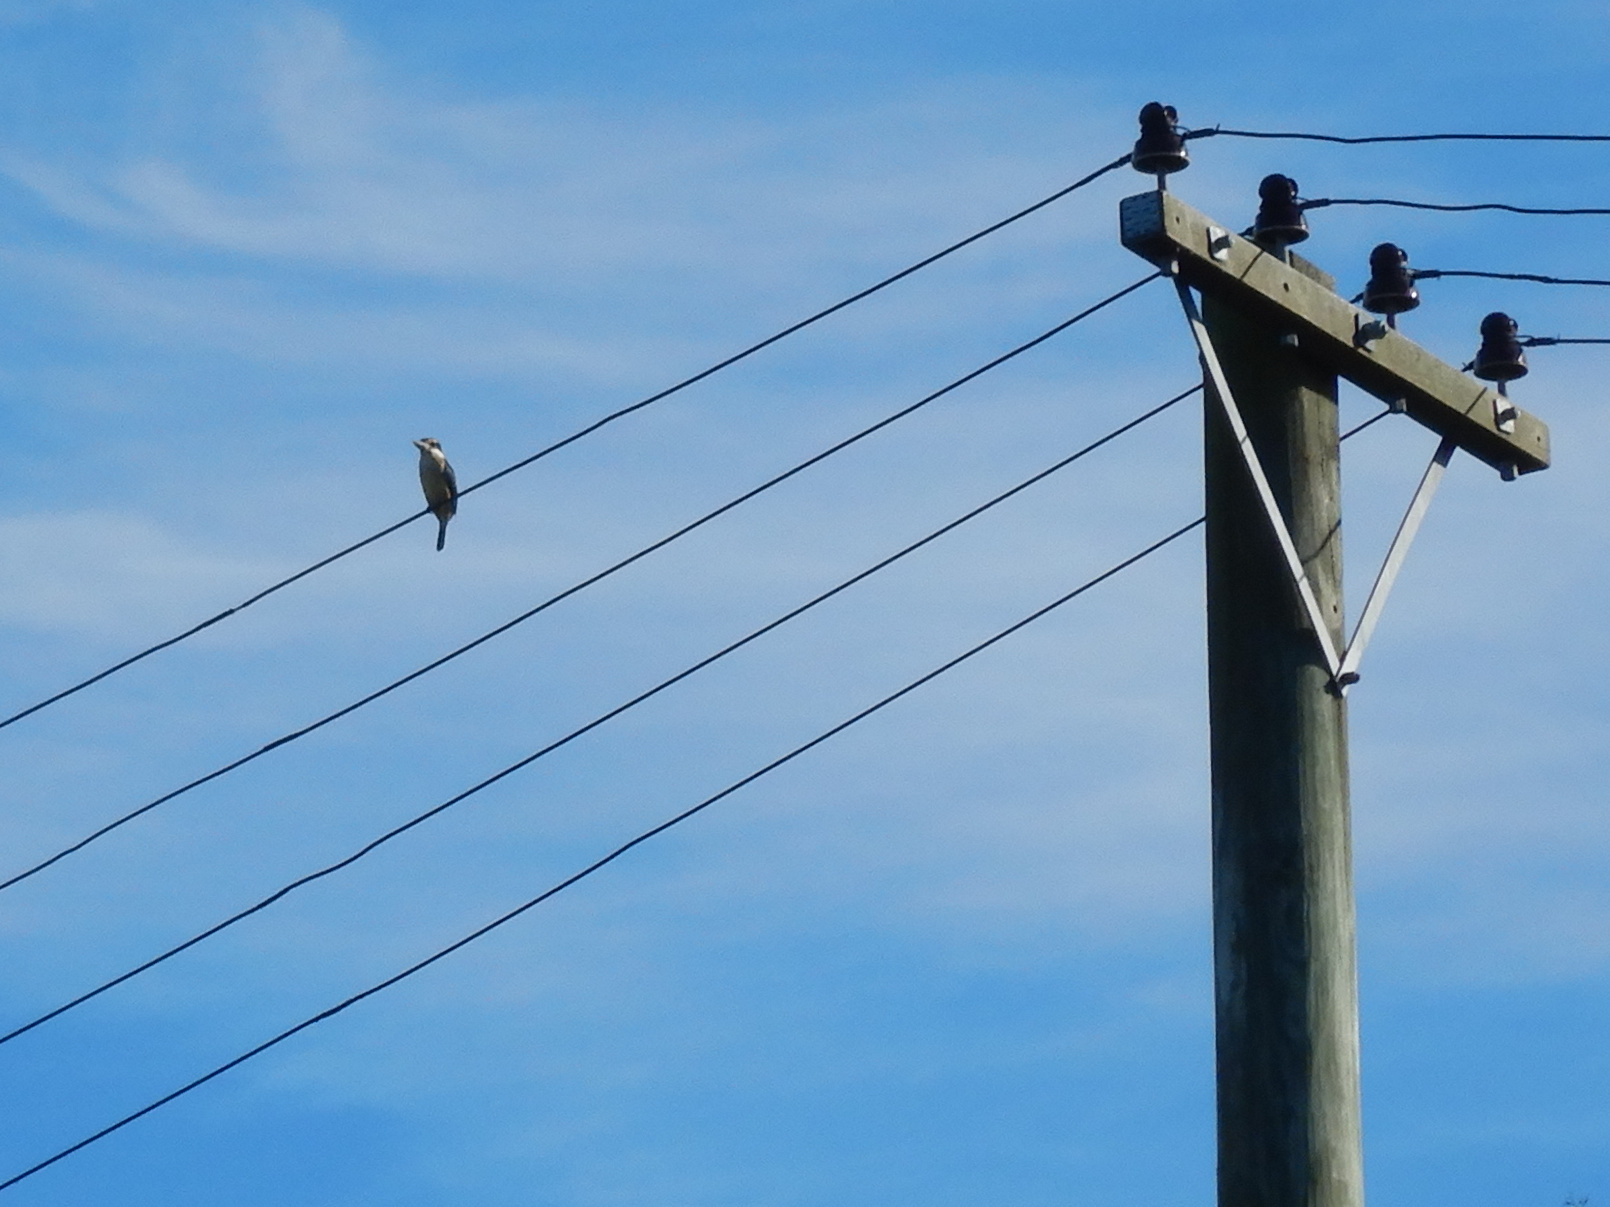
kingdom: Animalia
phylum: Chordata
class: Aves
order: Coraciiformes
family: Alcedinidae
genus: Todiramphus
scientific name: Todiramphus sanctus
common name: Sacred kingfisher
